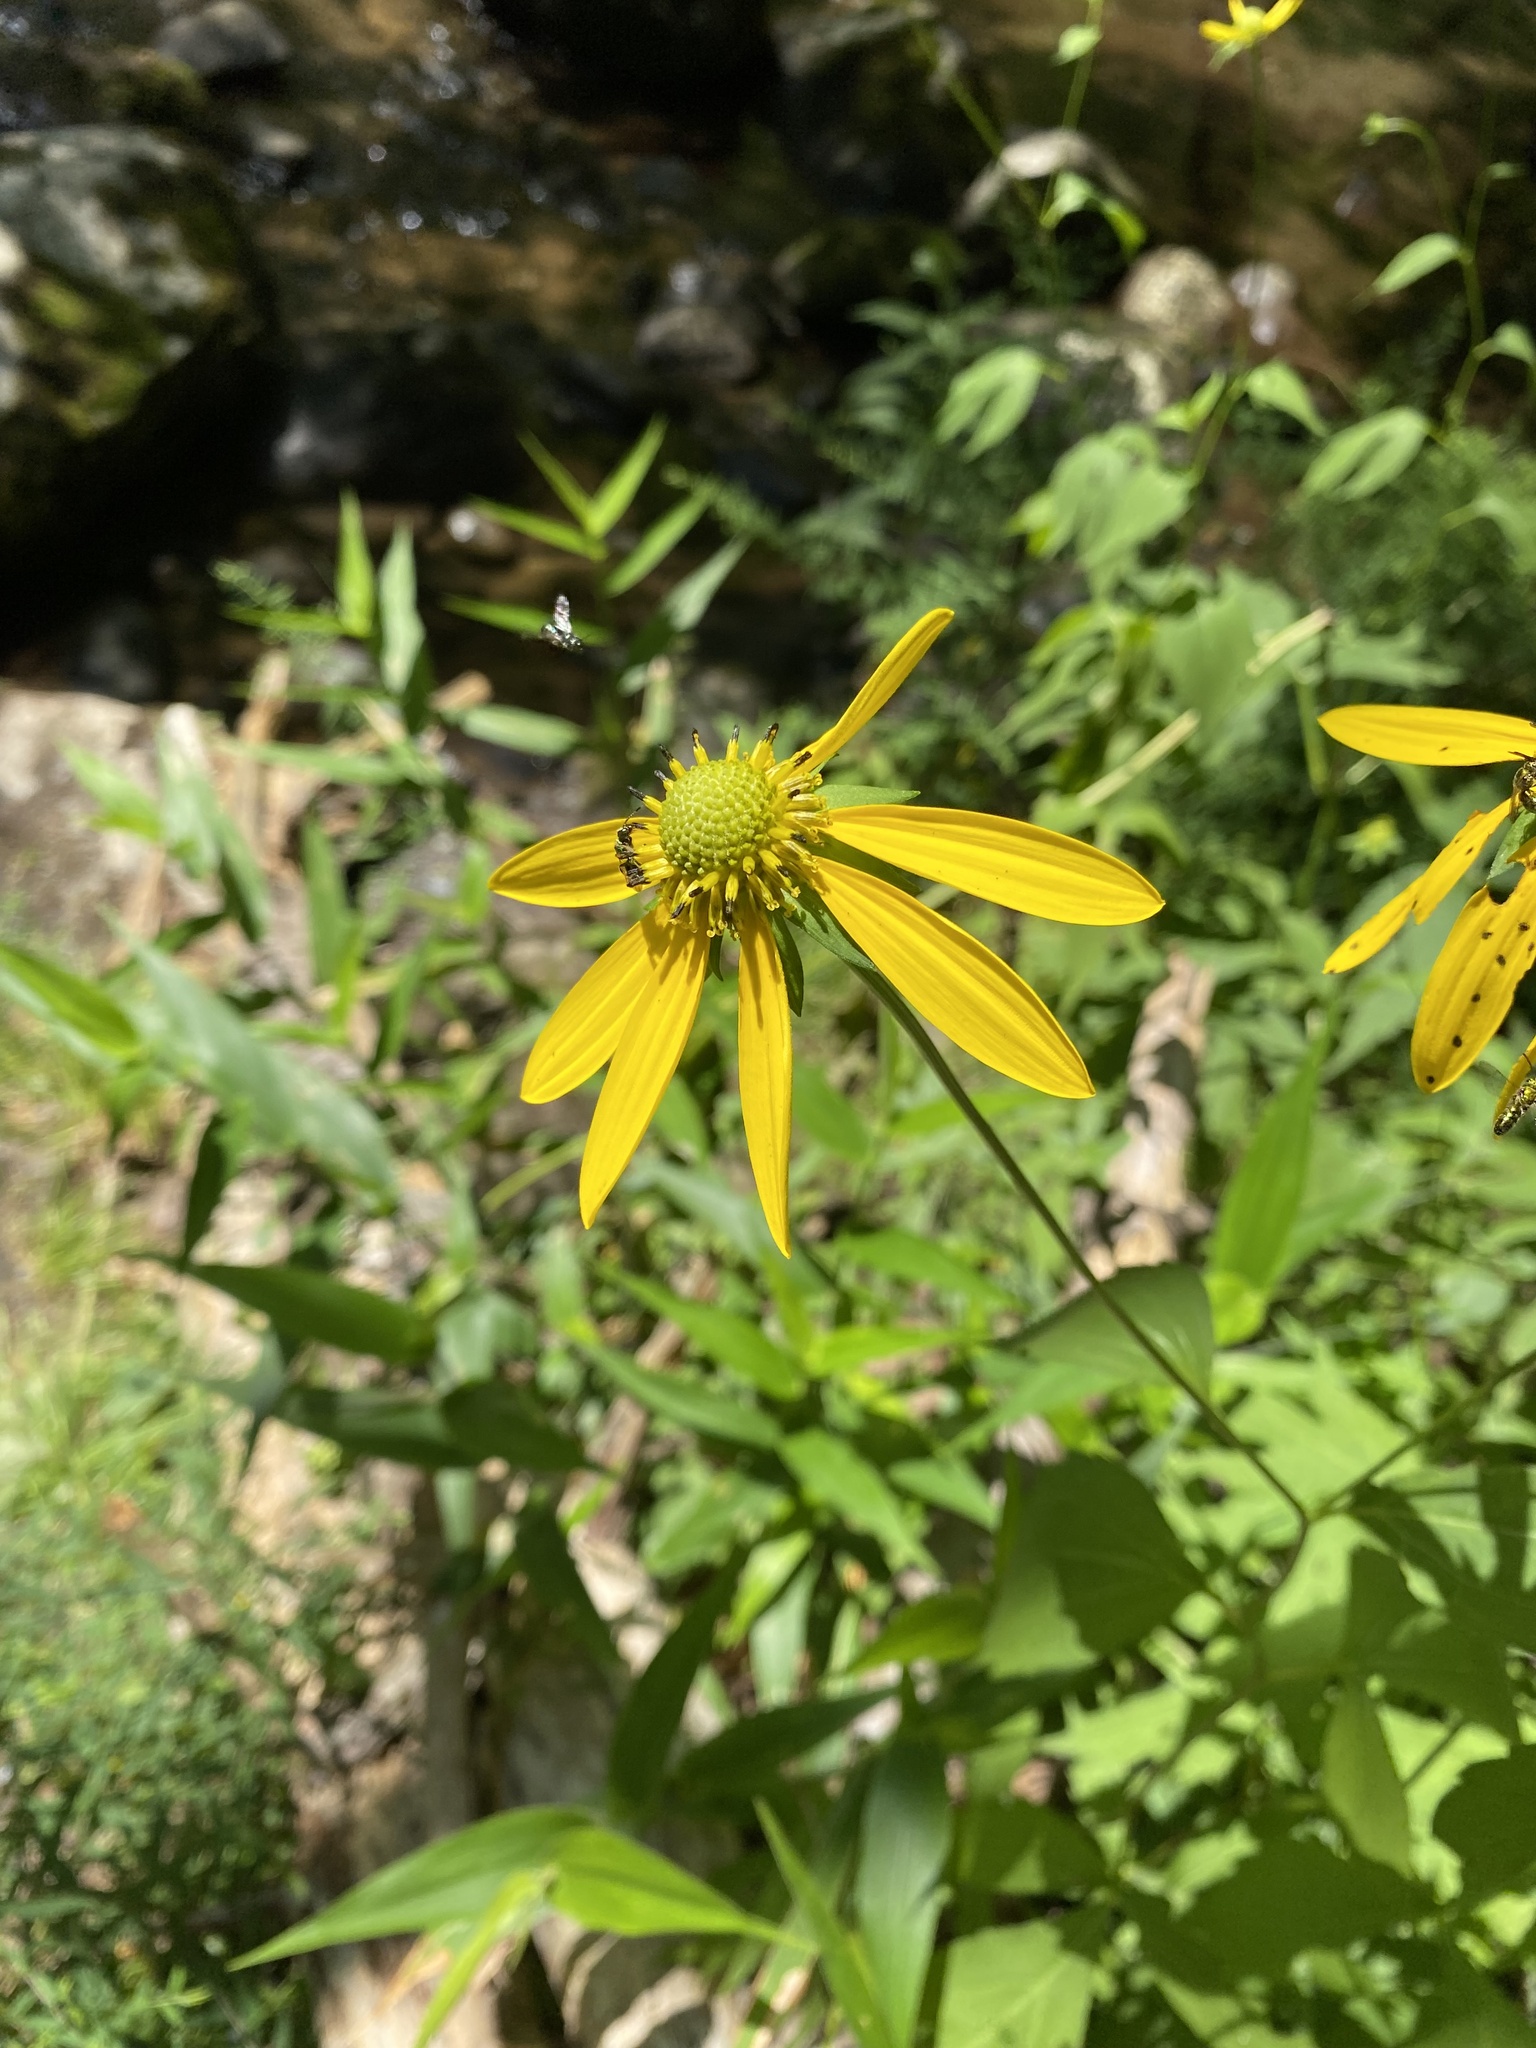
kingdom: Plantae
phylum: Tracheophyta
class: Magnoliopsida
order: Asterales
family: Asteraceae
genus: Rudbeckia
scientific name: Rudbeckia laciniata
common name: Coneflower
